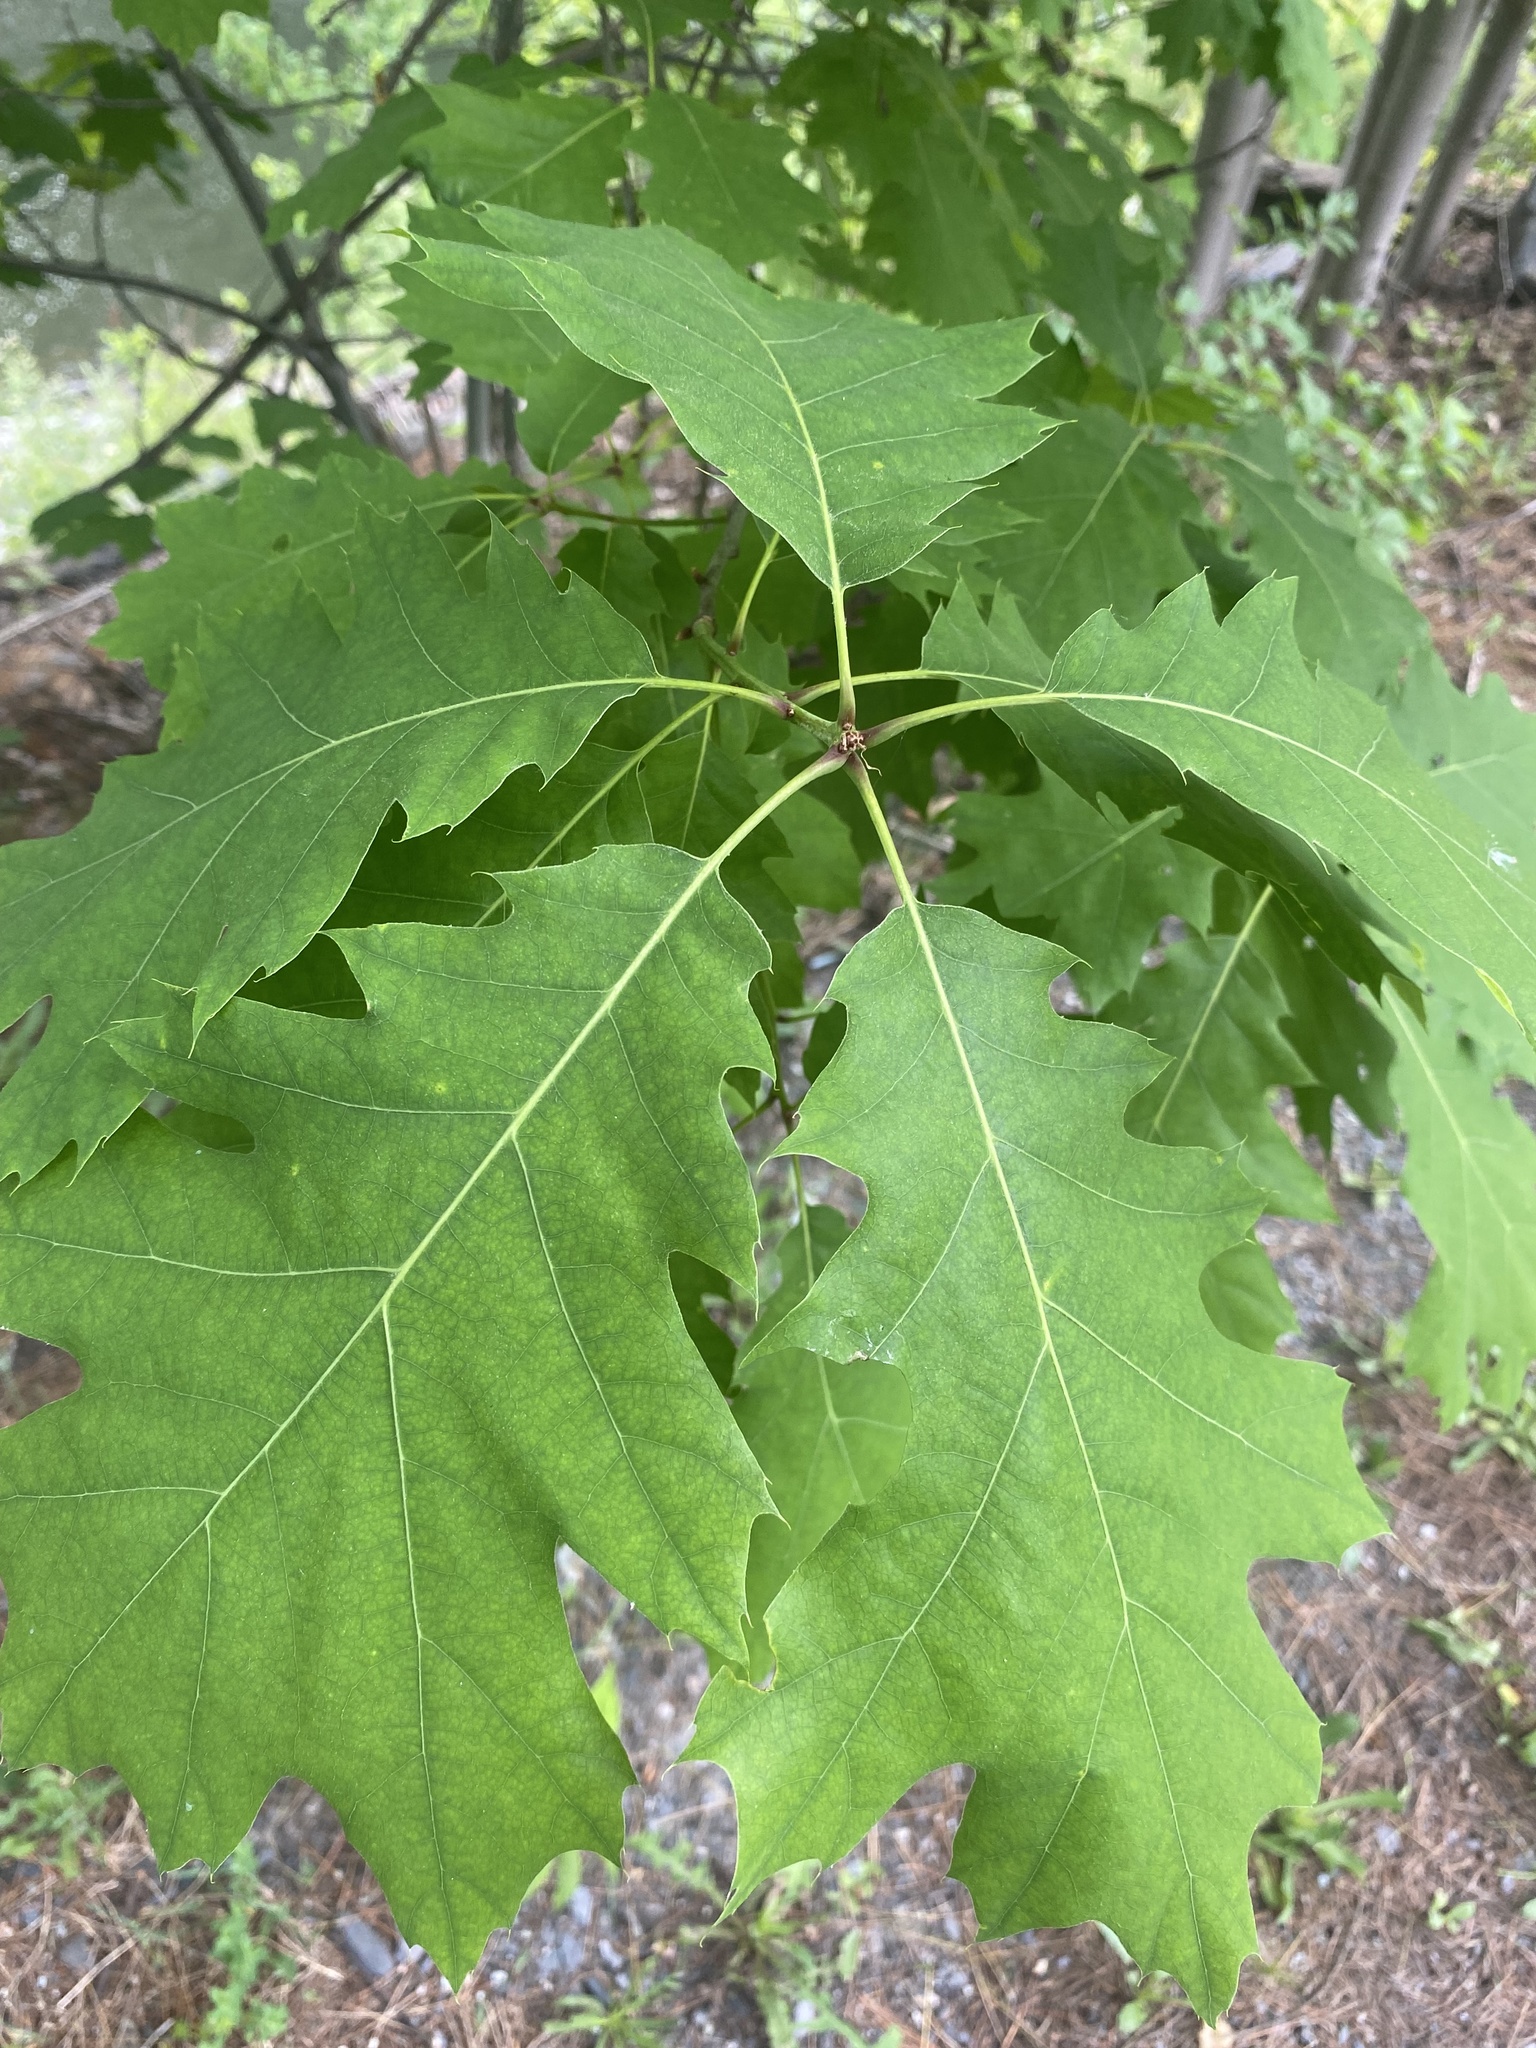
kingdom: Plantae
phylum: Tracheophyta
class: Magnoliopsida
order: Fagales
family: Fagaceae
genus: Quercus
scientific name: Quercus rubra
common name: Red oak
